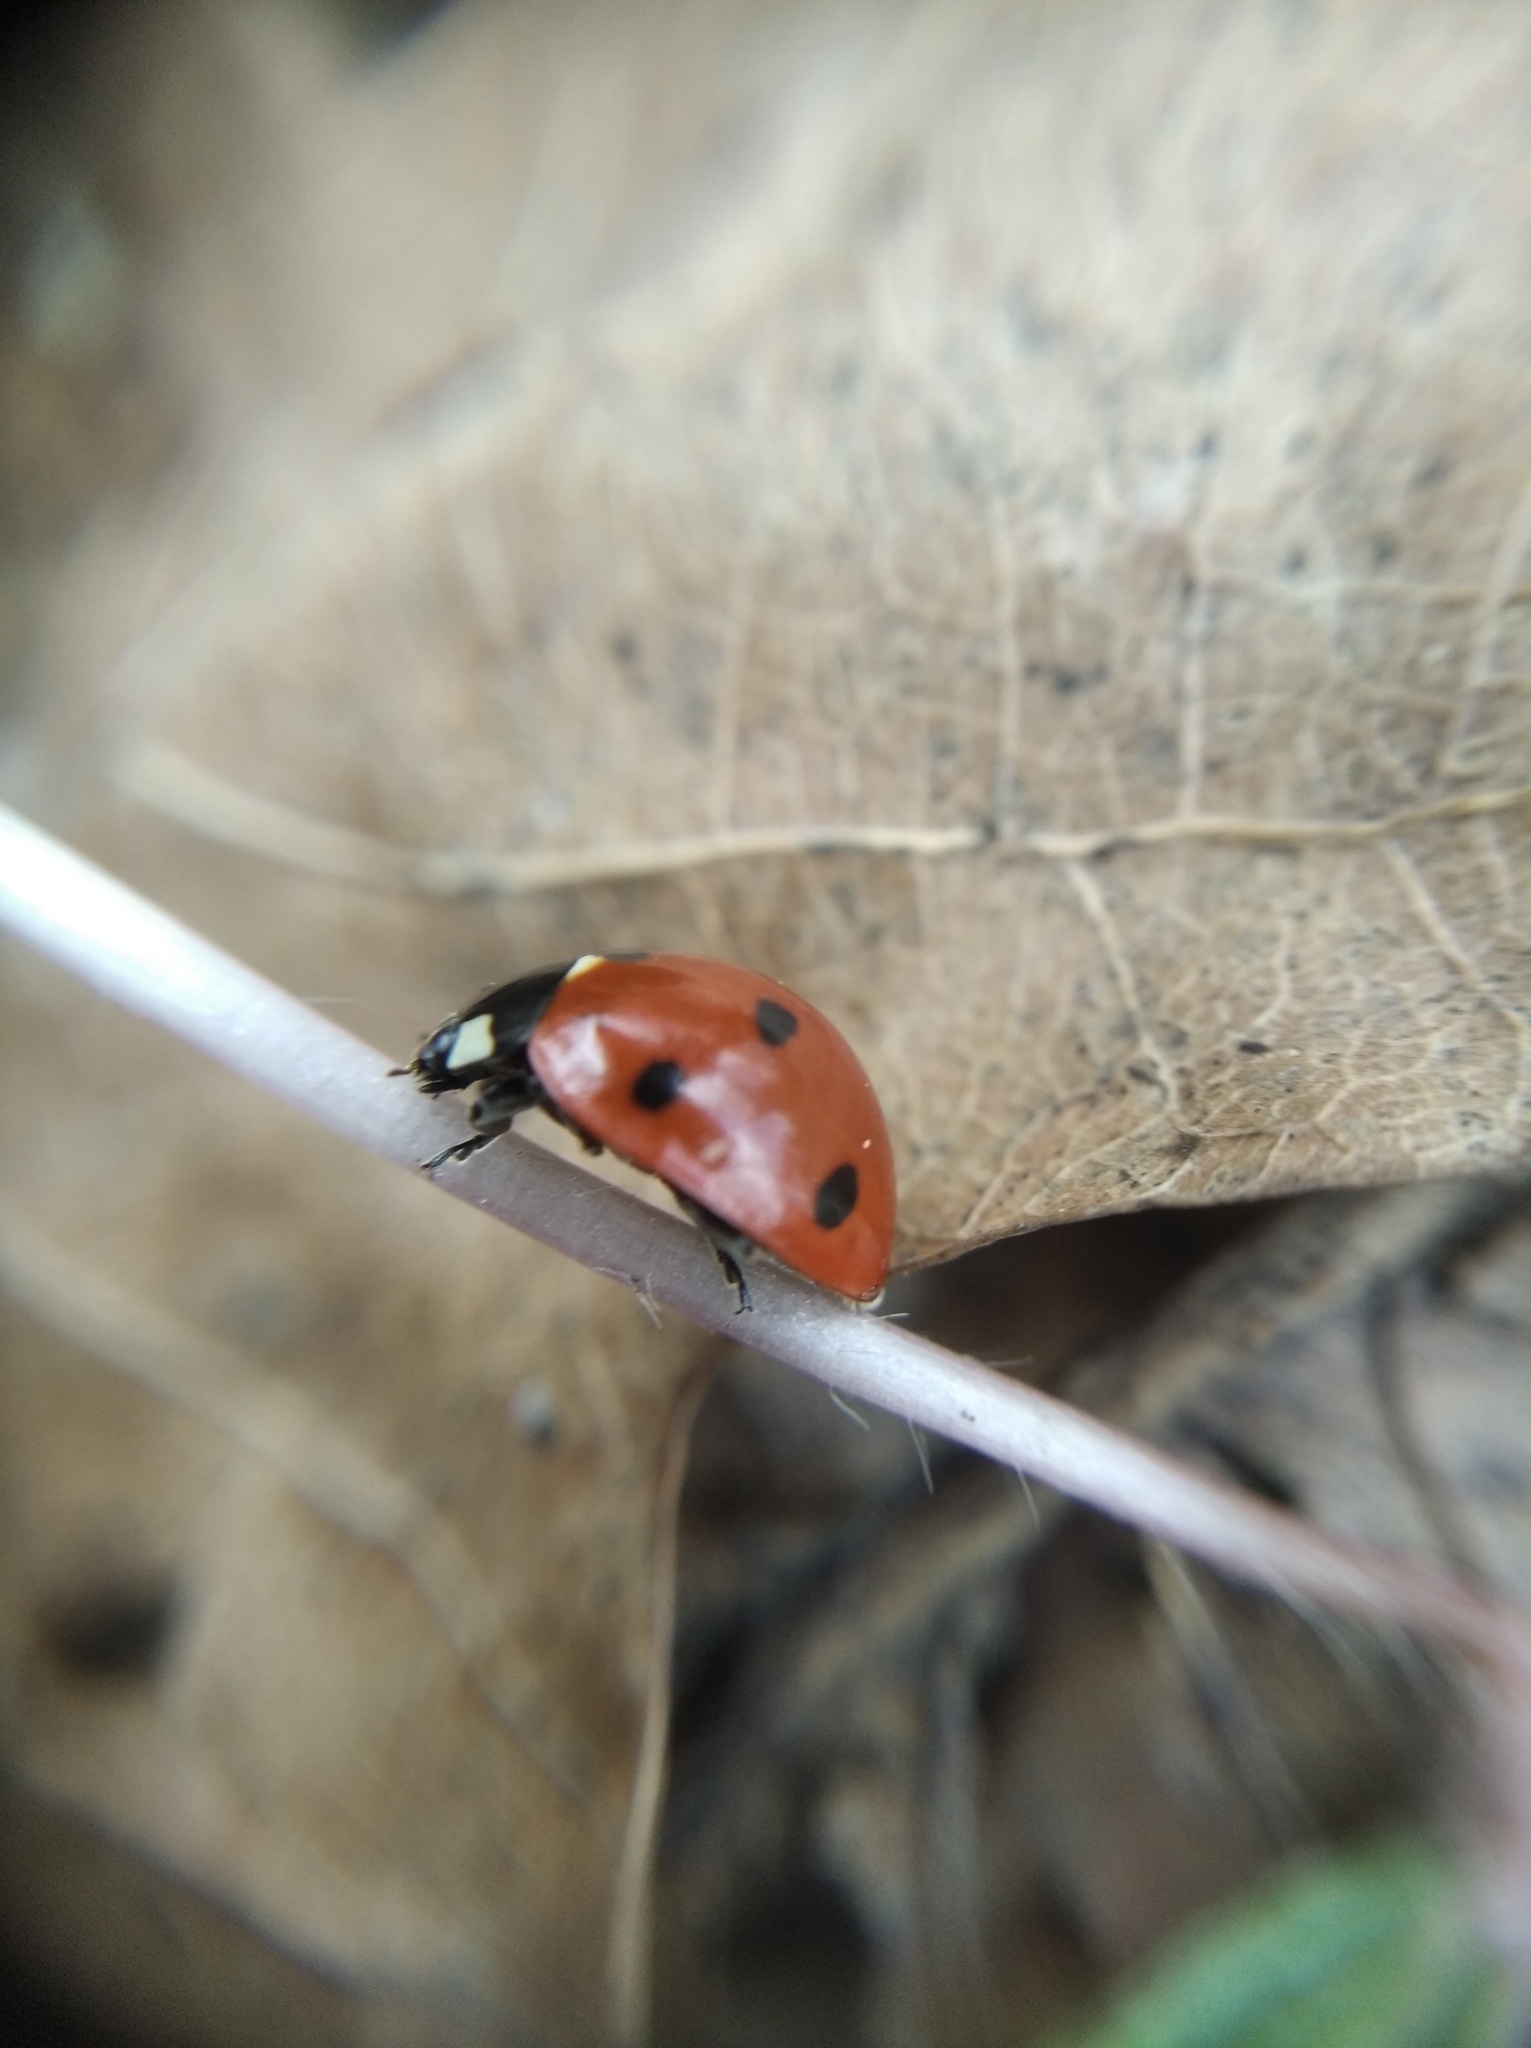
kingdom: Animalia
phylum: Arthropoda
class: Insecta
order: Coleoptera
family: Coccinellidae
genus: Coccinella
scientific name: Coccinella septempunctata
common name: Sevenspotted lady beetle
